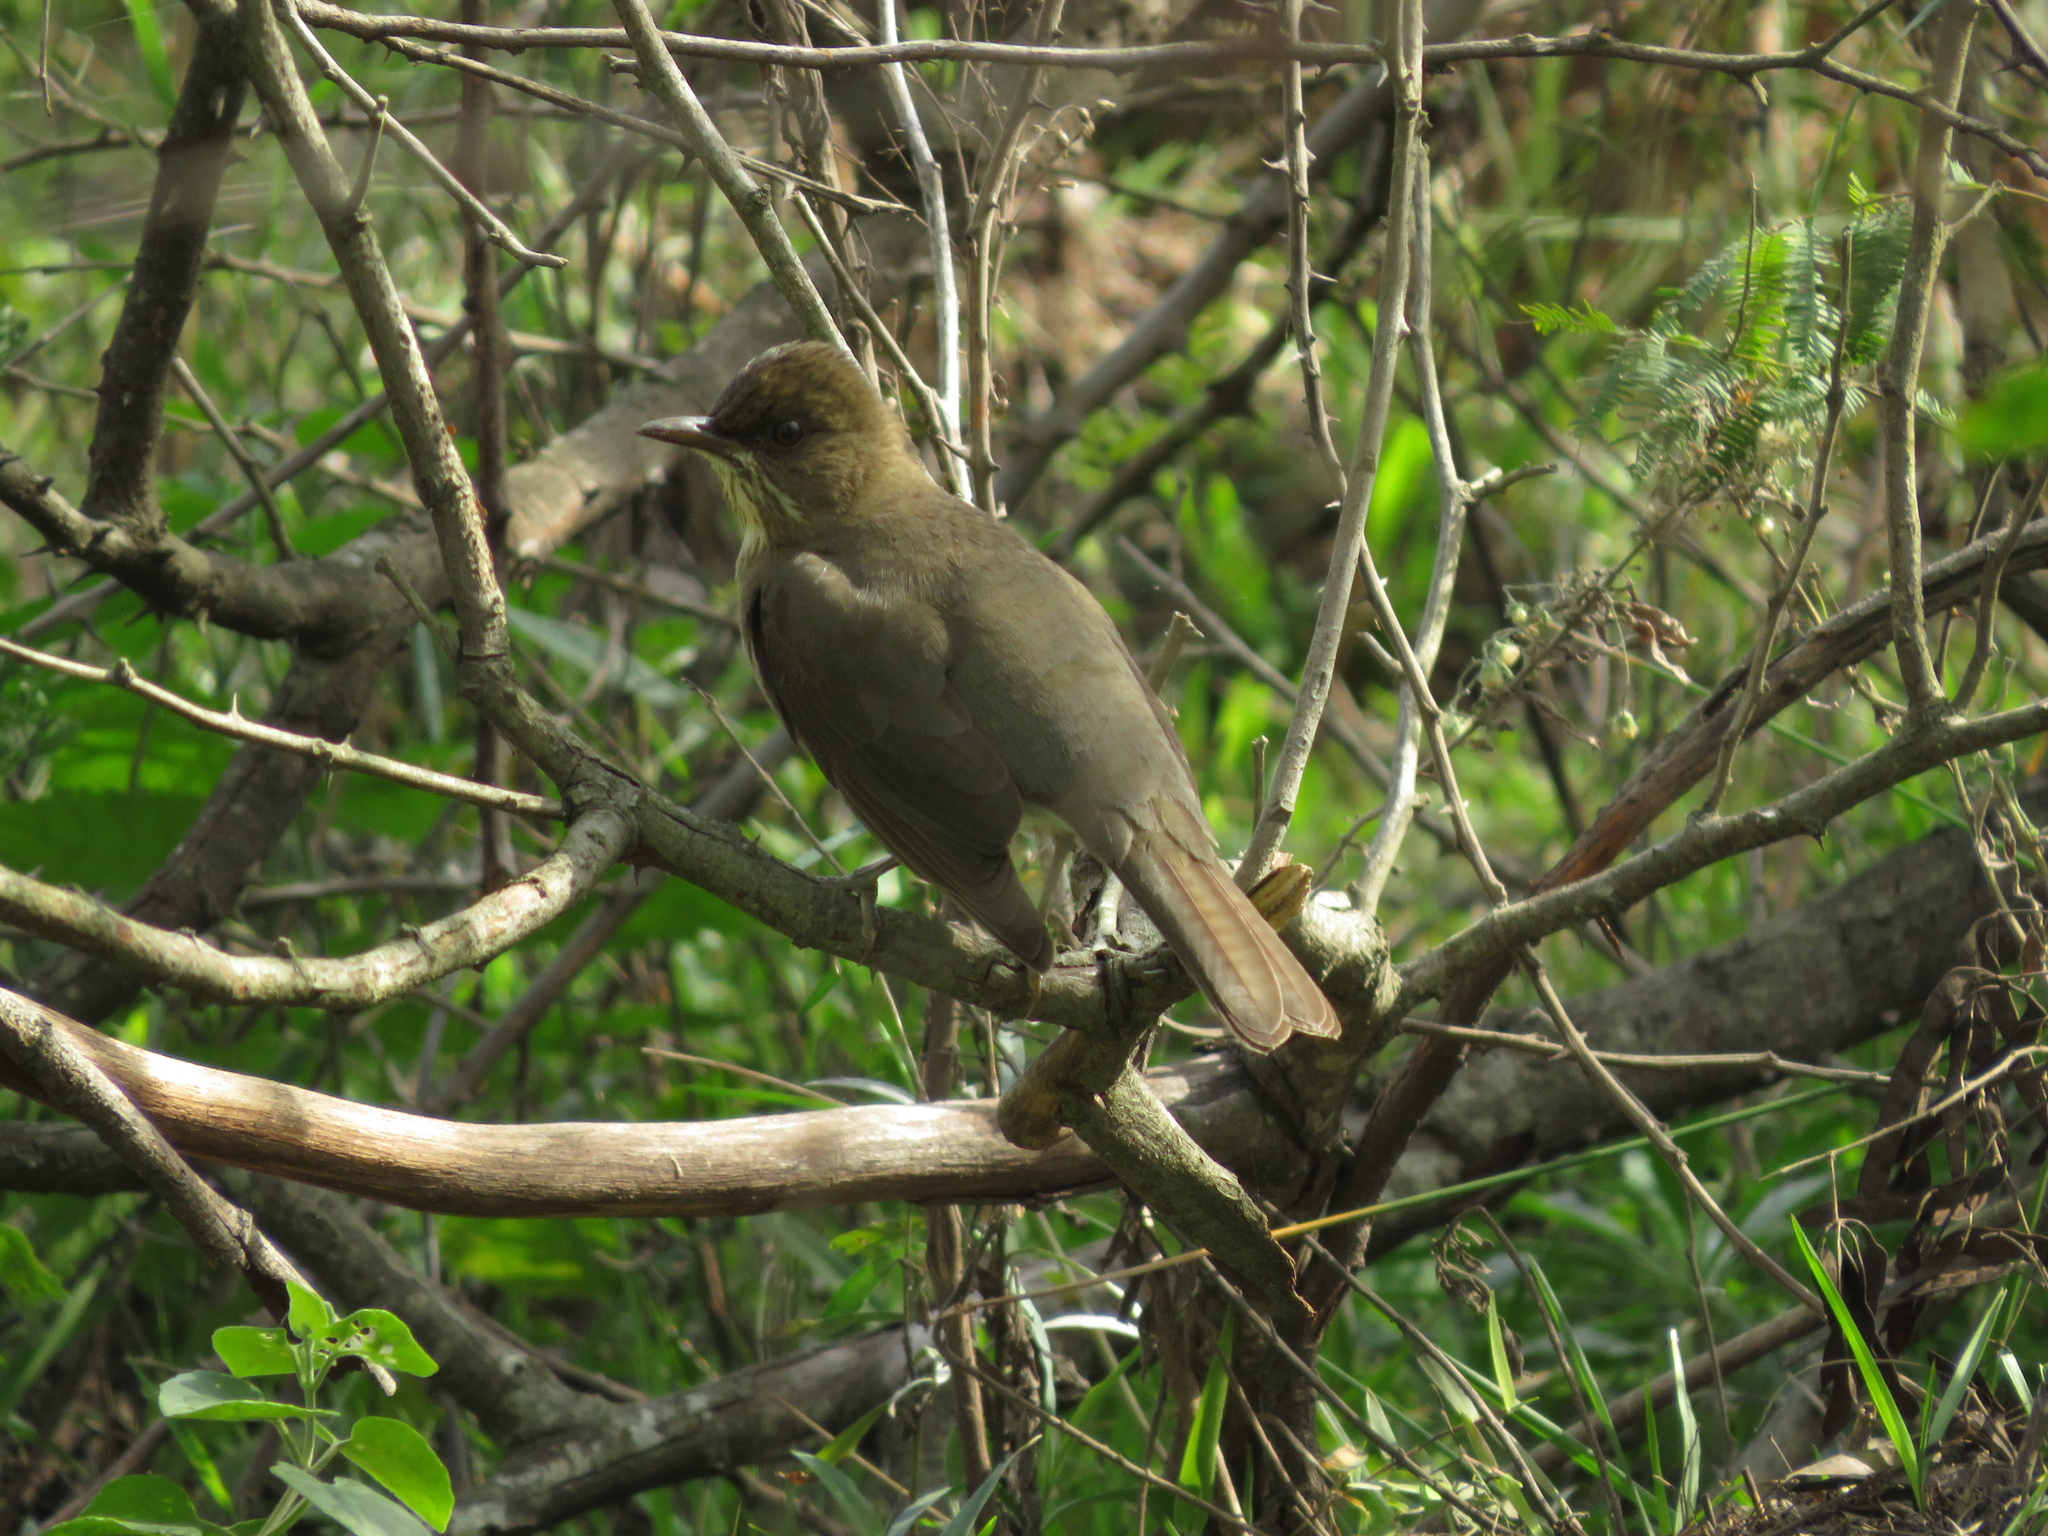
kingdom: Animalia
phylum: Chordata
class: Aves
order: Passeriformes
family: Turdidae
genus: Turdus
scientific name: Turdus amaurochalinus
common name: Creamy-bellied thrush
